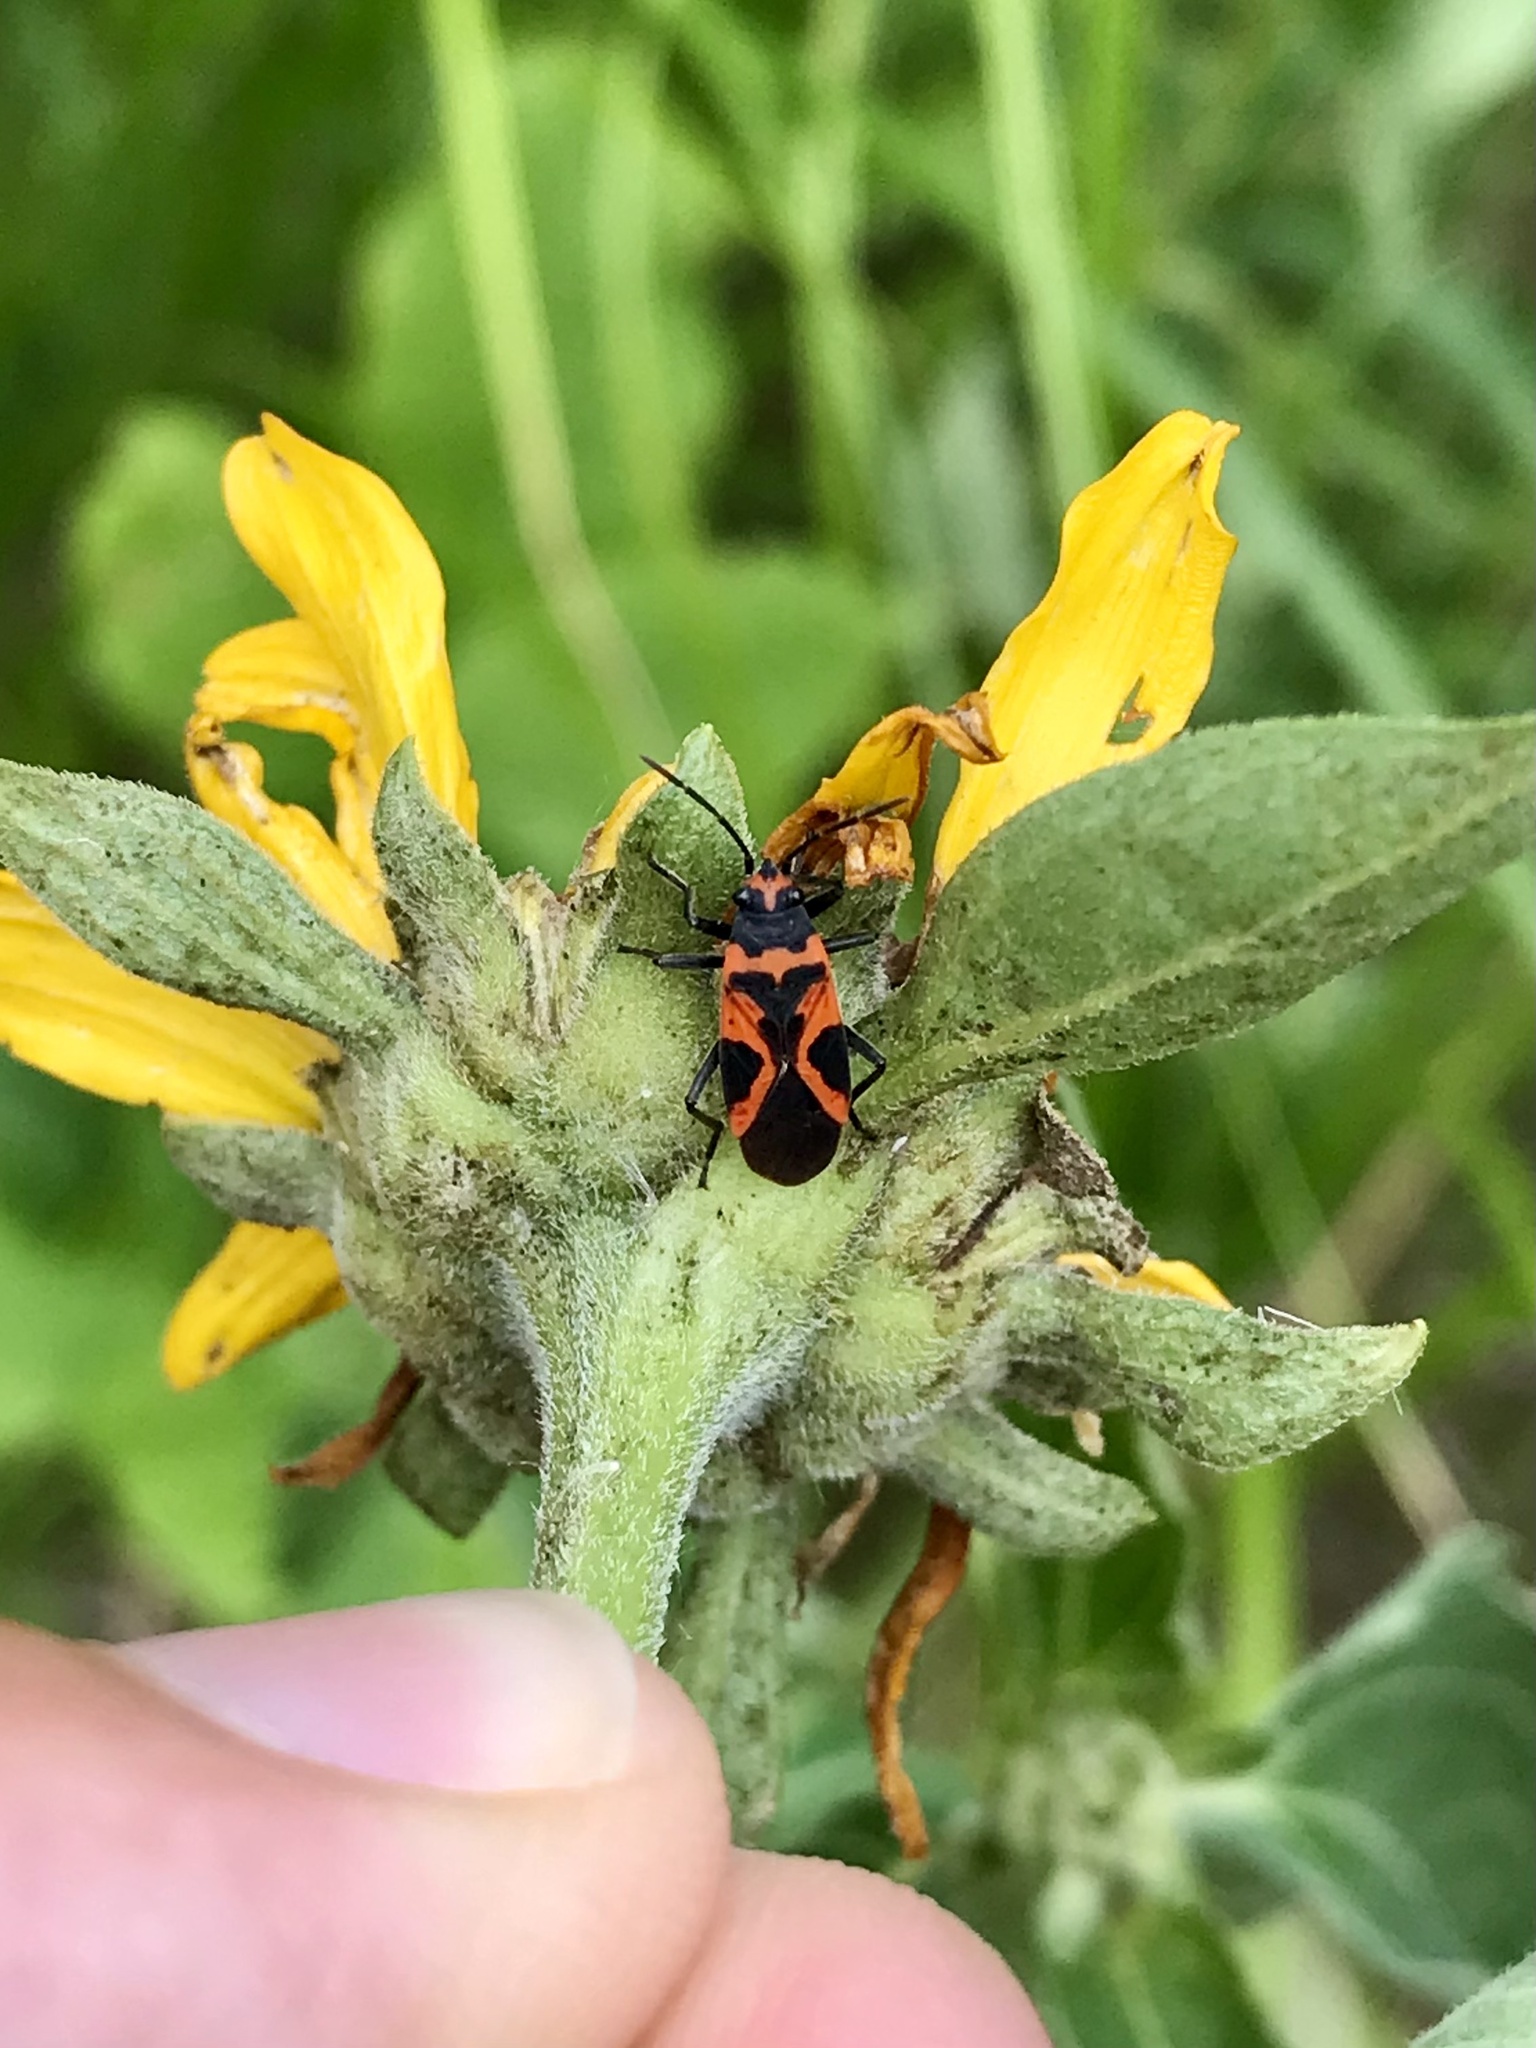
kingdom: Animalia
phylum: Arthropoda
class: Insecta
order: Hemiptera
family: Lygaeidae
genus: Lygaeus
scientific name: Lygaeus turcicus
